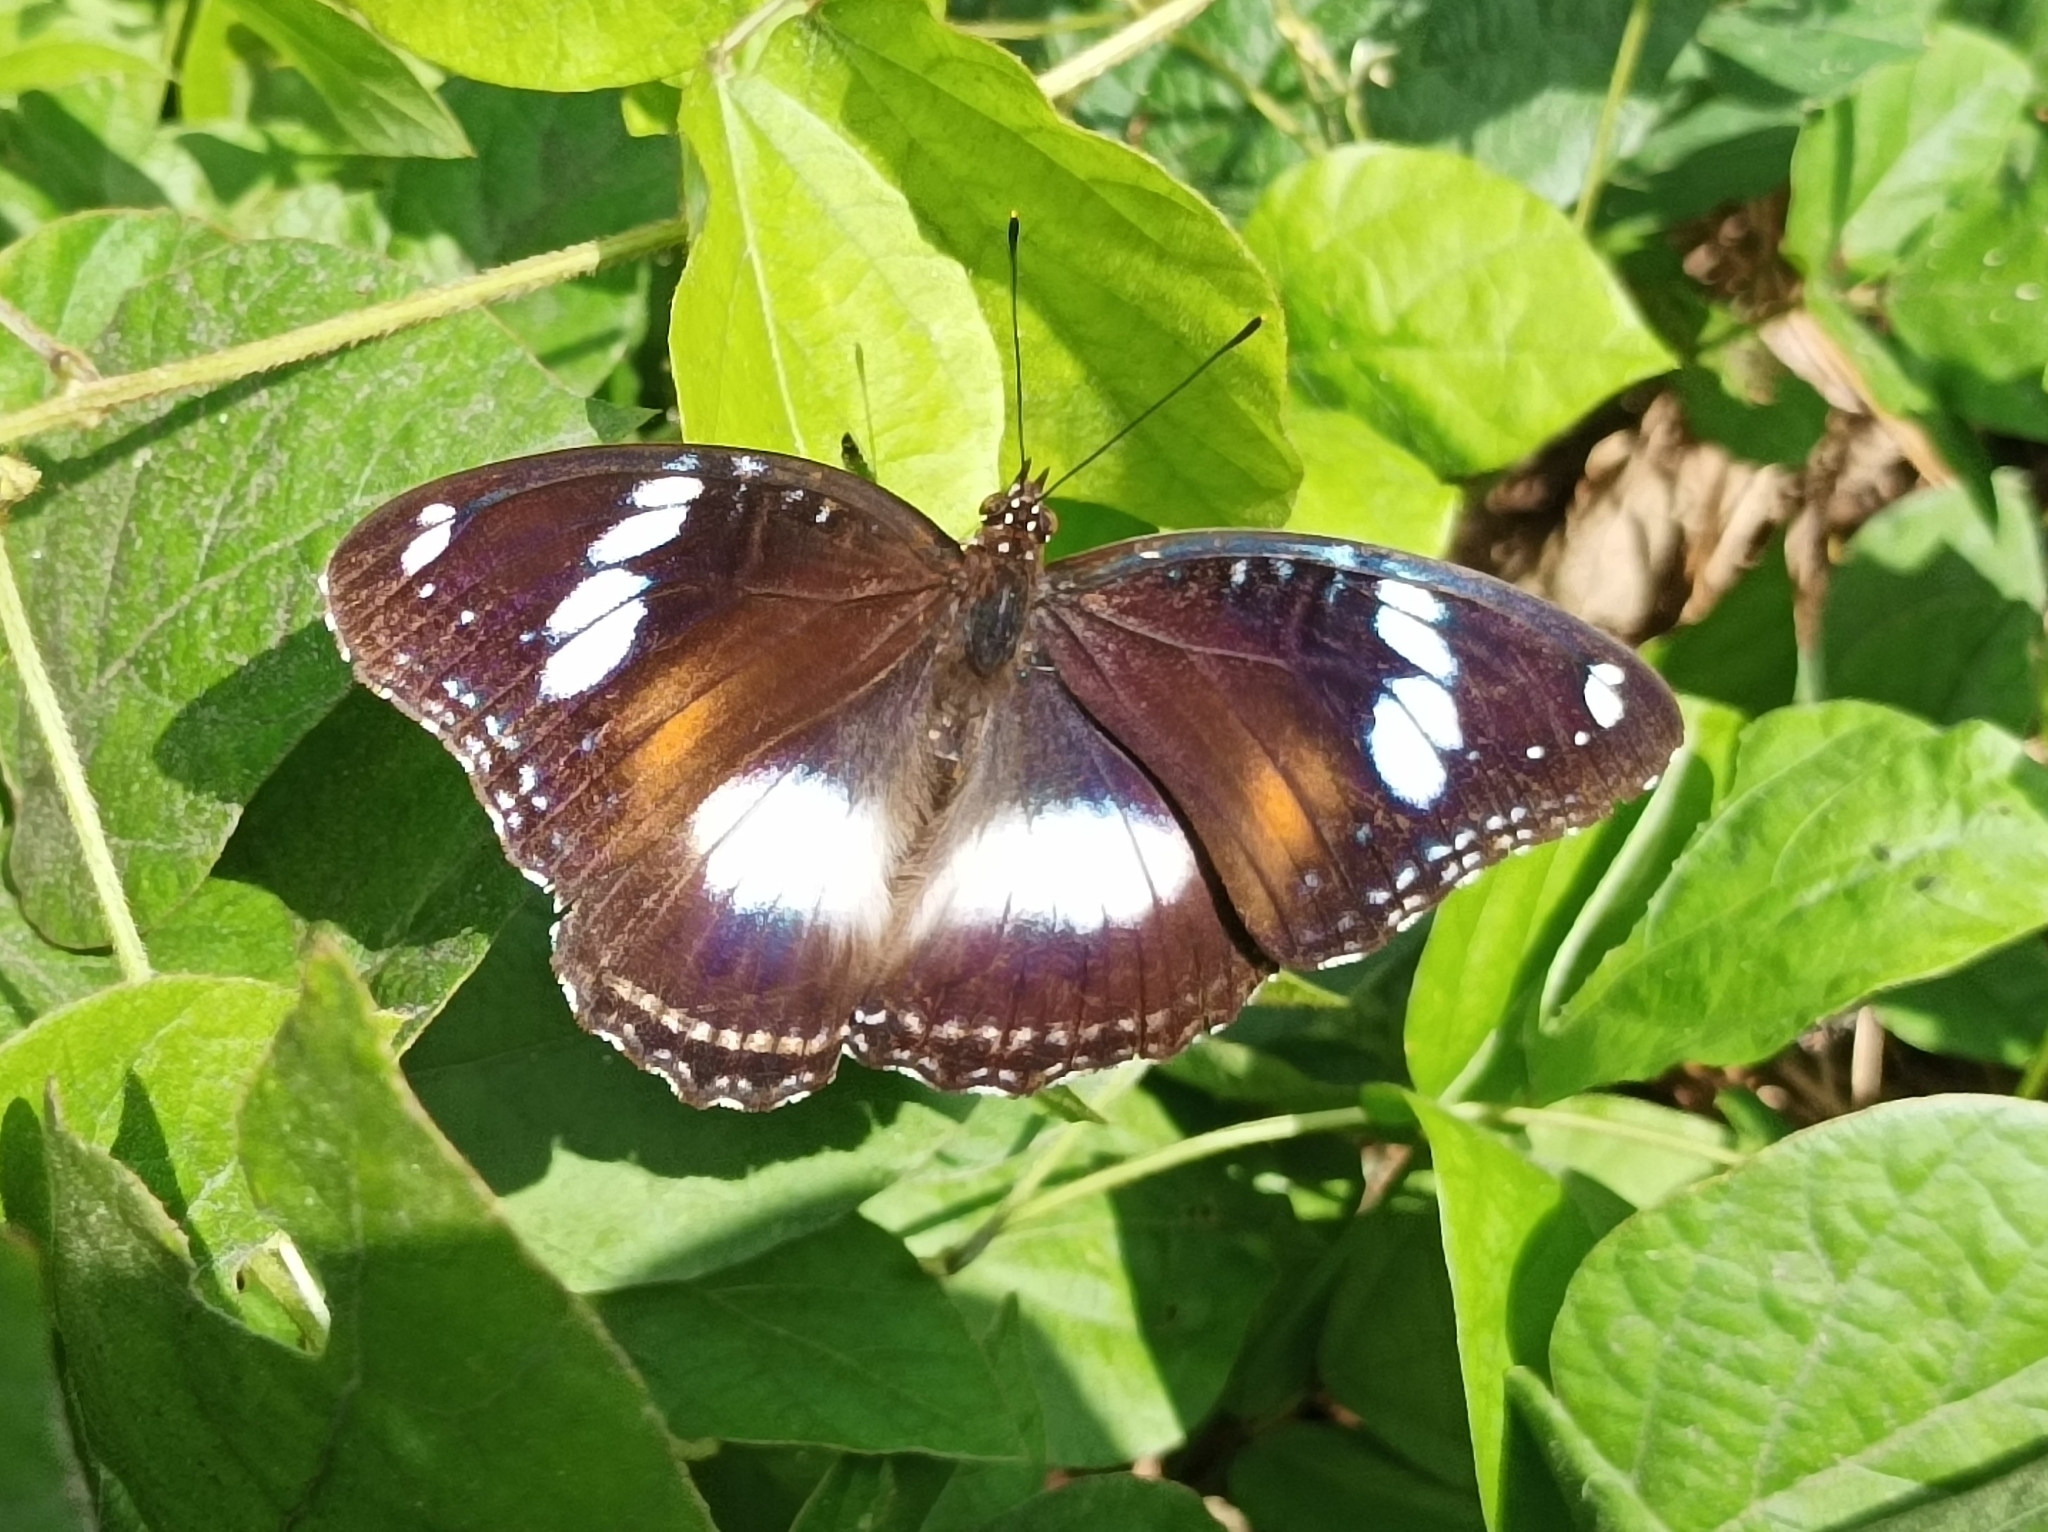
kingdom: Animalia
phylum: Arthropoda
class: Insecta
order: Lepidoptera
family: Nymphalidae
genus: Hypolimnas
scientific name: Hypolimnas bolina
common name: Great eggfly
